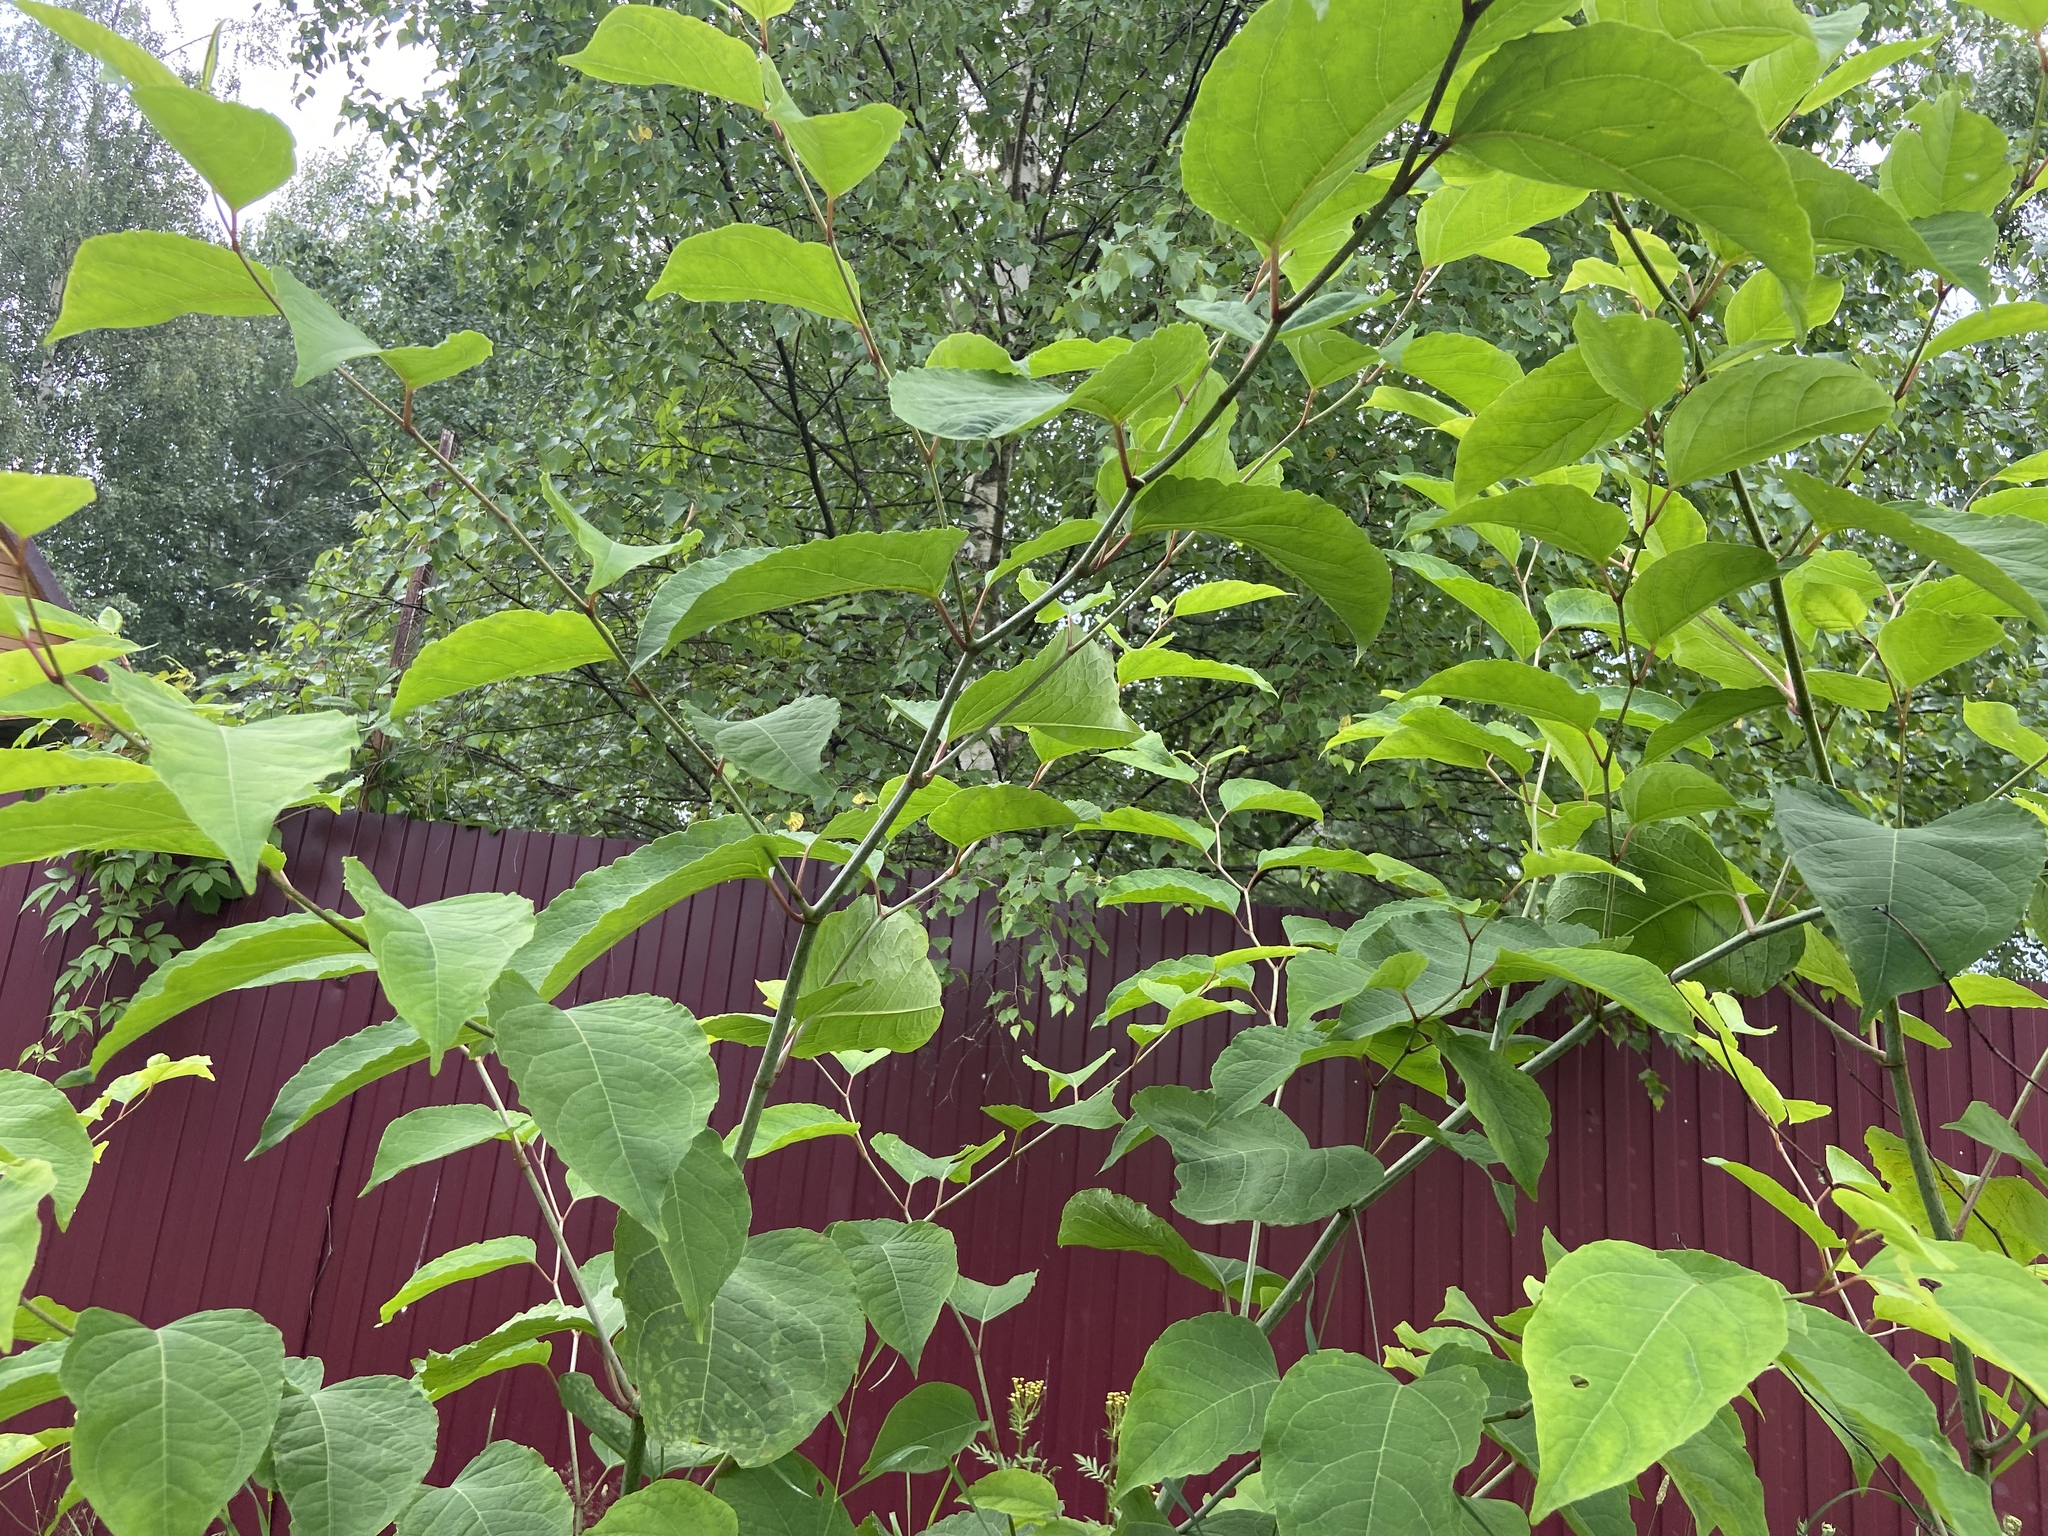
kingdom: Plantae
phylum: Tracheophyta
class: Magnoliopsida
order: Caryophyllales
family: Polygonaceae
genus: Reynoutria
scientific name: Reynoutria bohemica
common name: Bohemian knotweed
